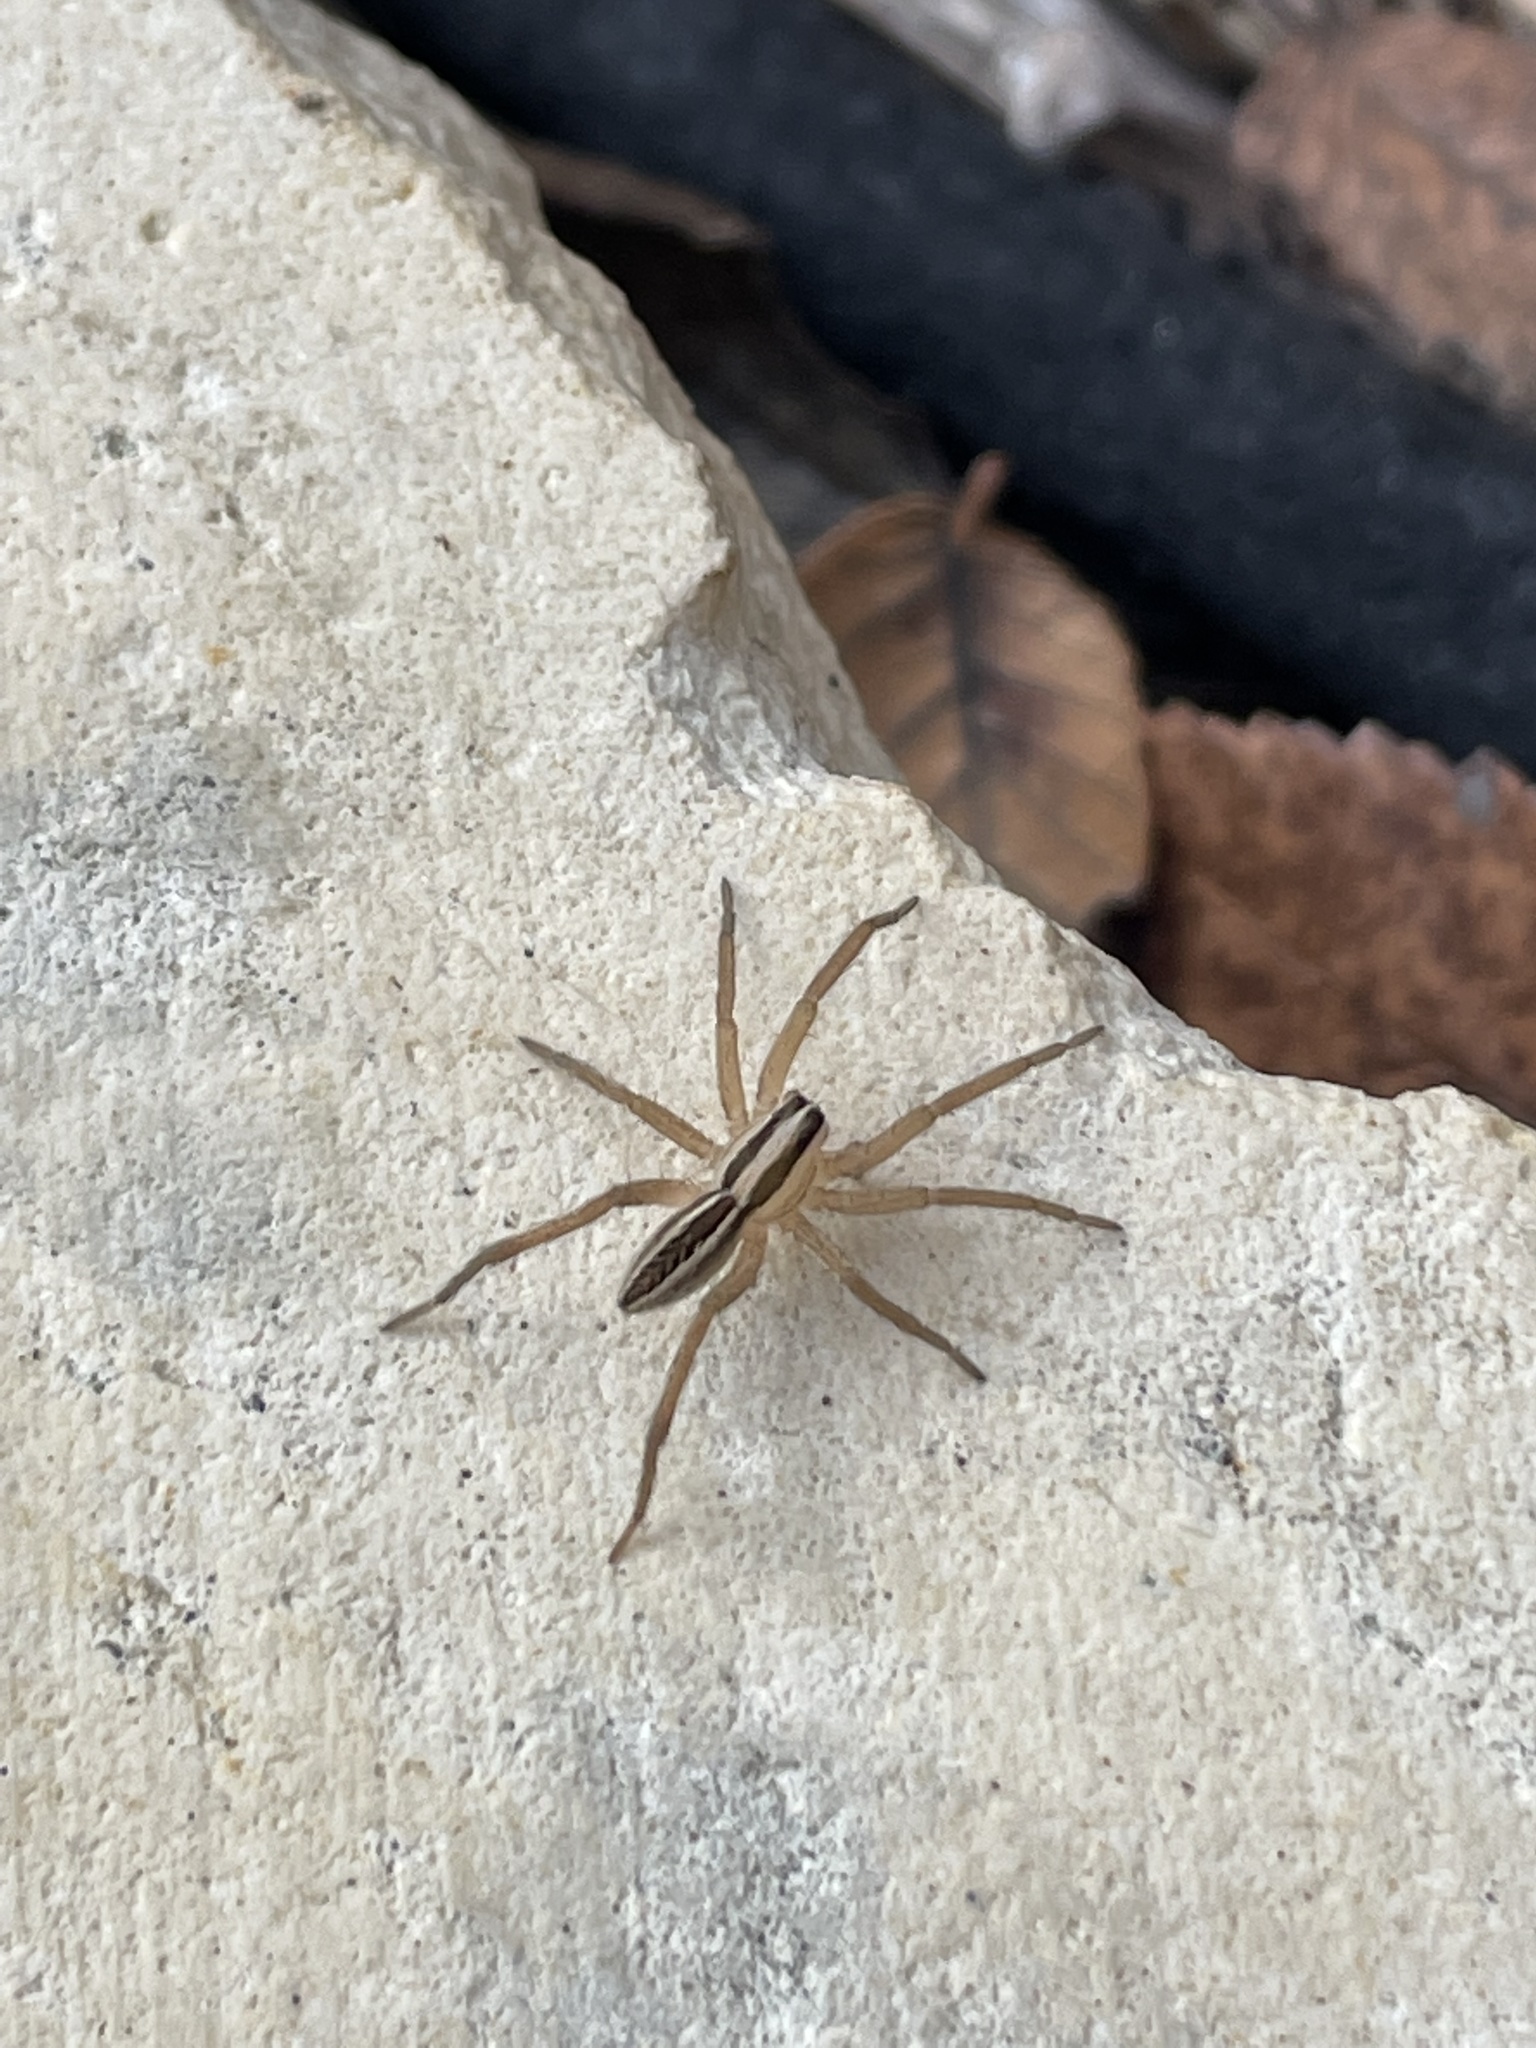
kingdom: Animalia
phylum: Arthropoda
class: Arachnida
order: Araneae
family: Lycosidae
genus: Rabidosa
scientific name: Rabidosa rabida
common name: Rabid wolf spider
